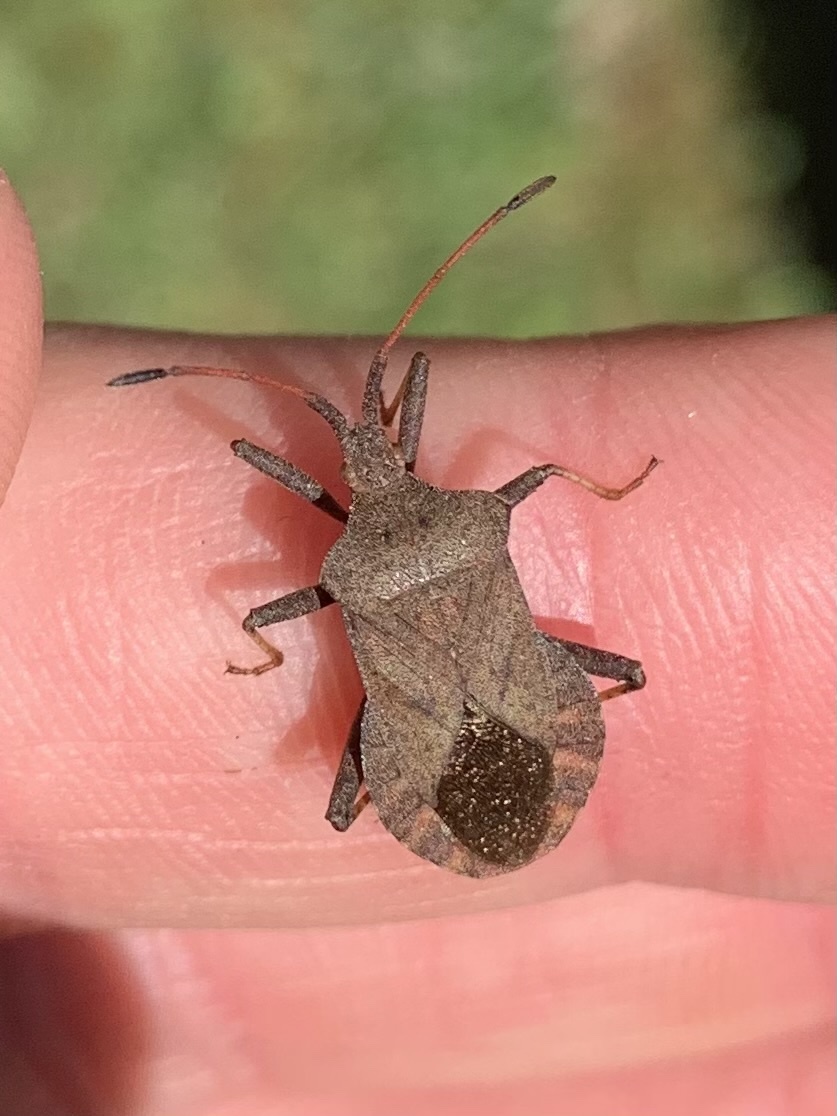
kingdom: Animalia
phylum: Arthropoda
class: Insecta
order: Hemiptera
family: Coreidae
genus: Coreus
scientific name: Coreus marginatus
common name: Dock bug
